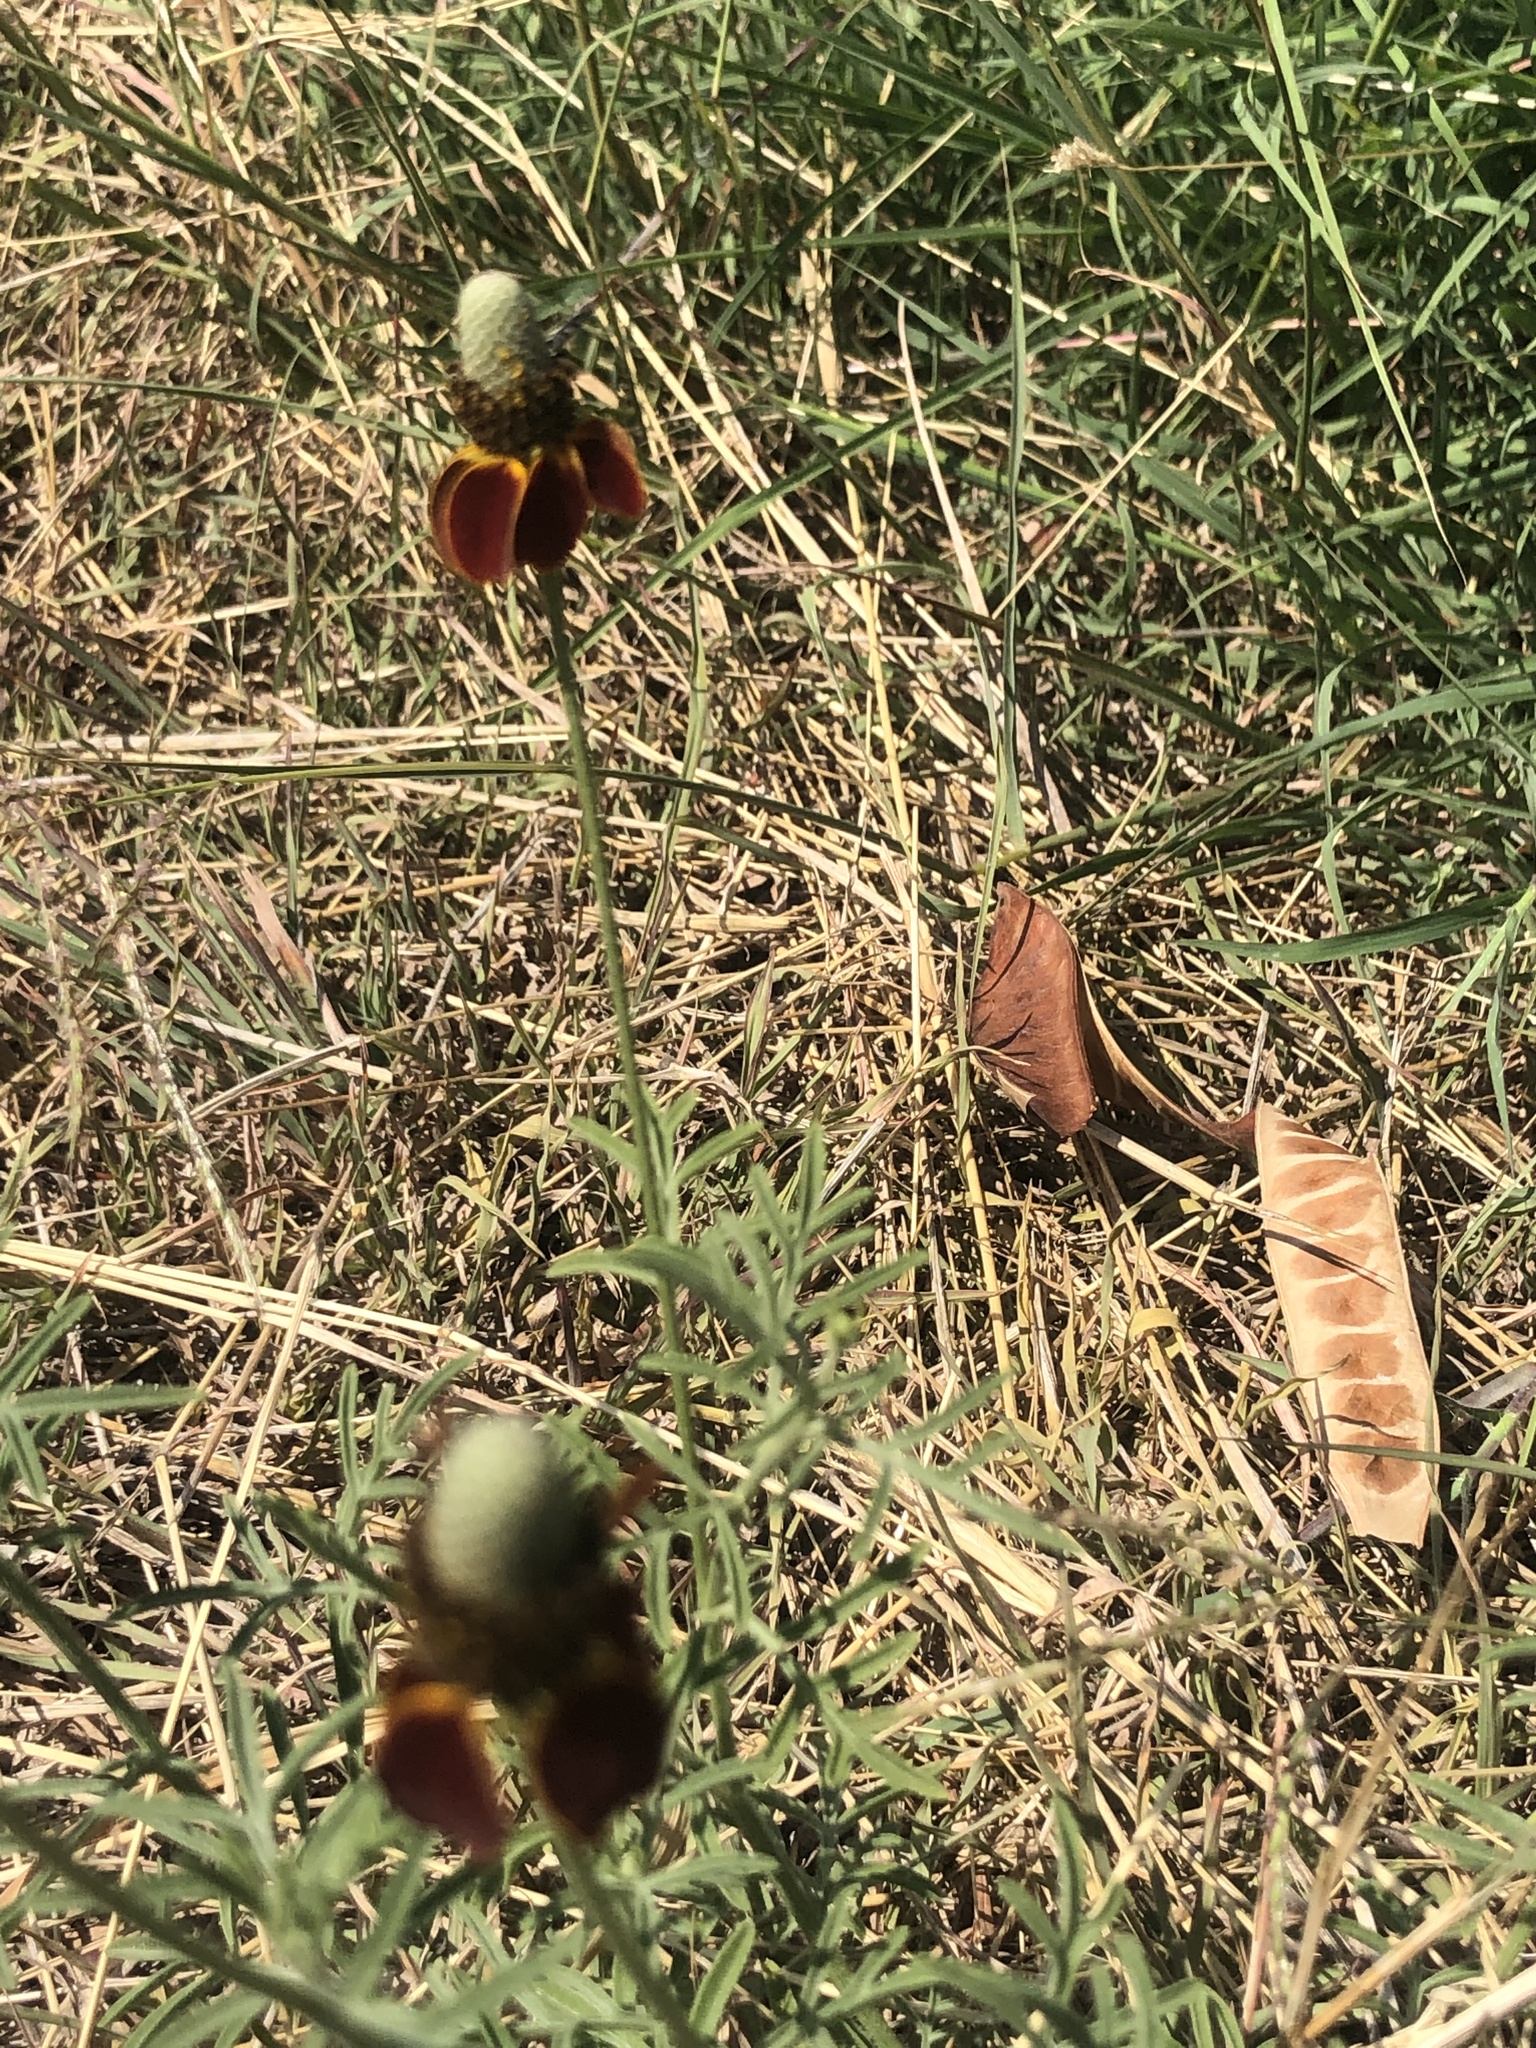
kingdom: Plantae
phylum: Tracheophyta
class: Magnoliopsida
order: Asterales
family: Asteraceae
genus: Ratibida
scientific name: Ratibida columnifera
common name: Prairie coneflower
